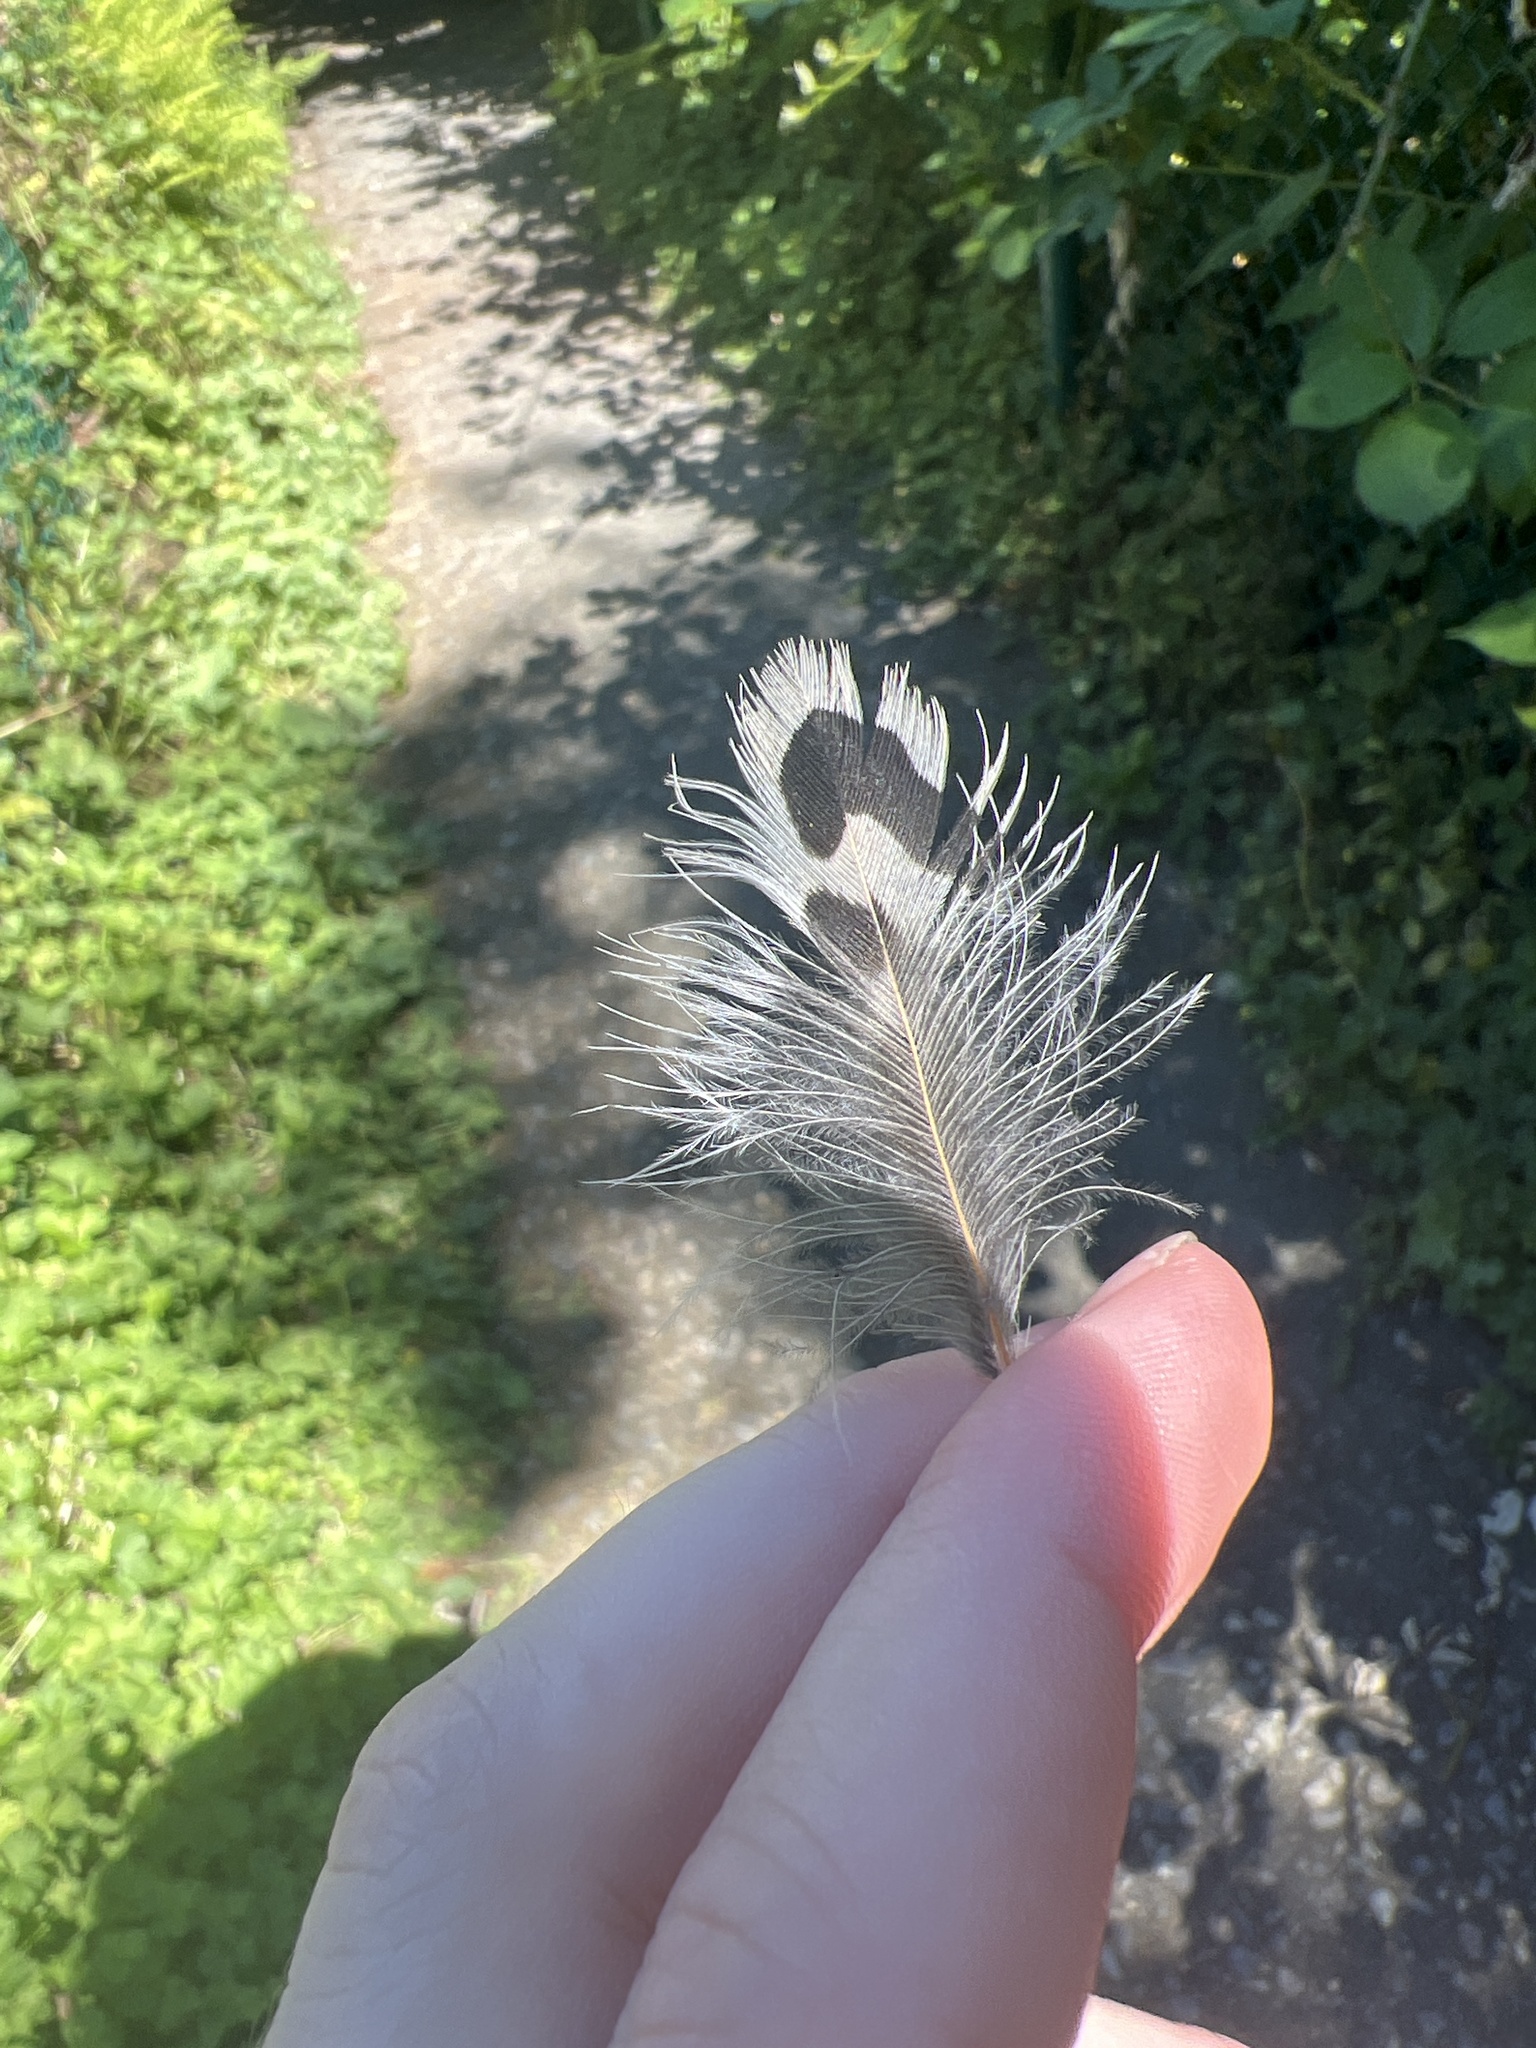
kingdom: Animalia
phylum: Chordata
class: Aves
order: Piciformes
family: Picidae
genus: Colaptes
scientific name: Colaptes auratus
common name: Northern flicker
